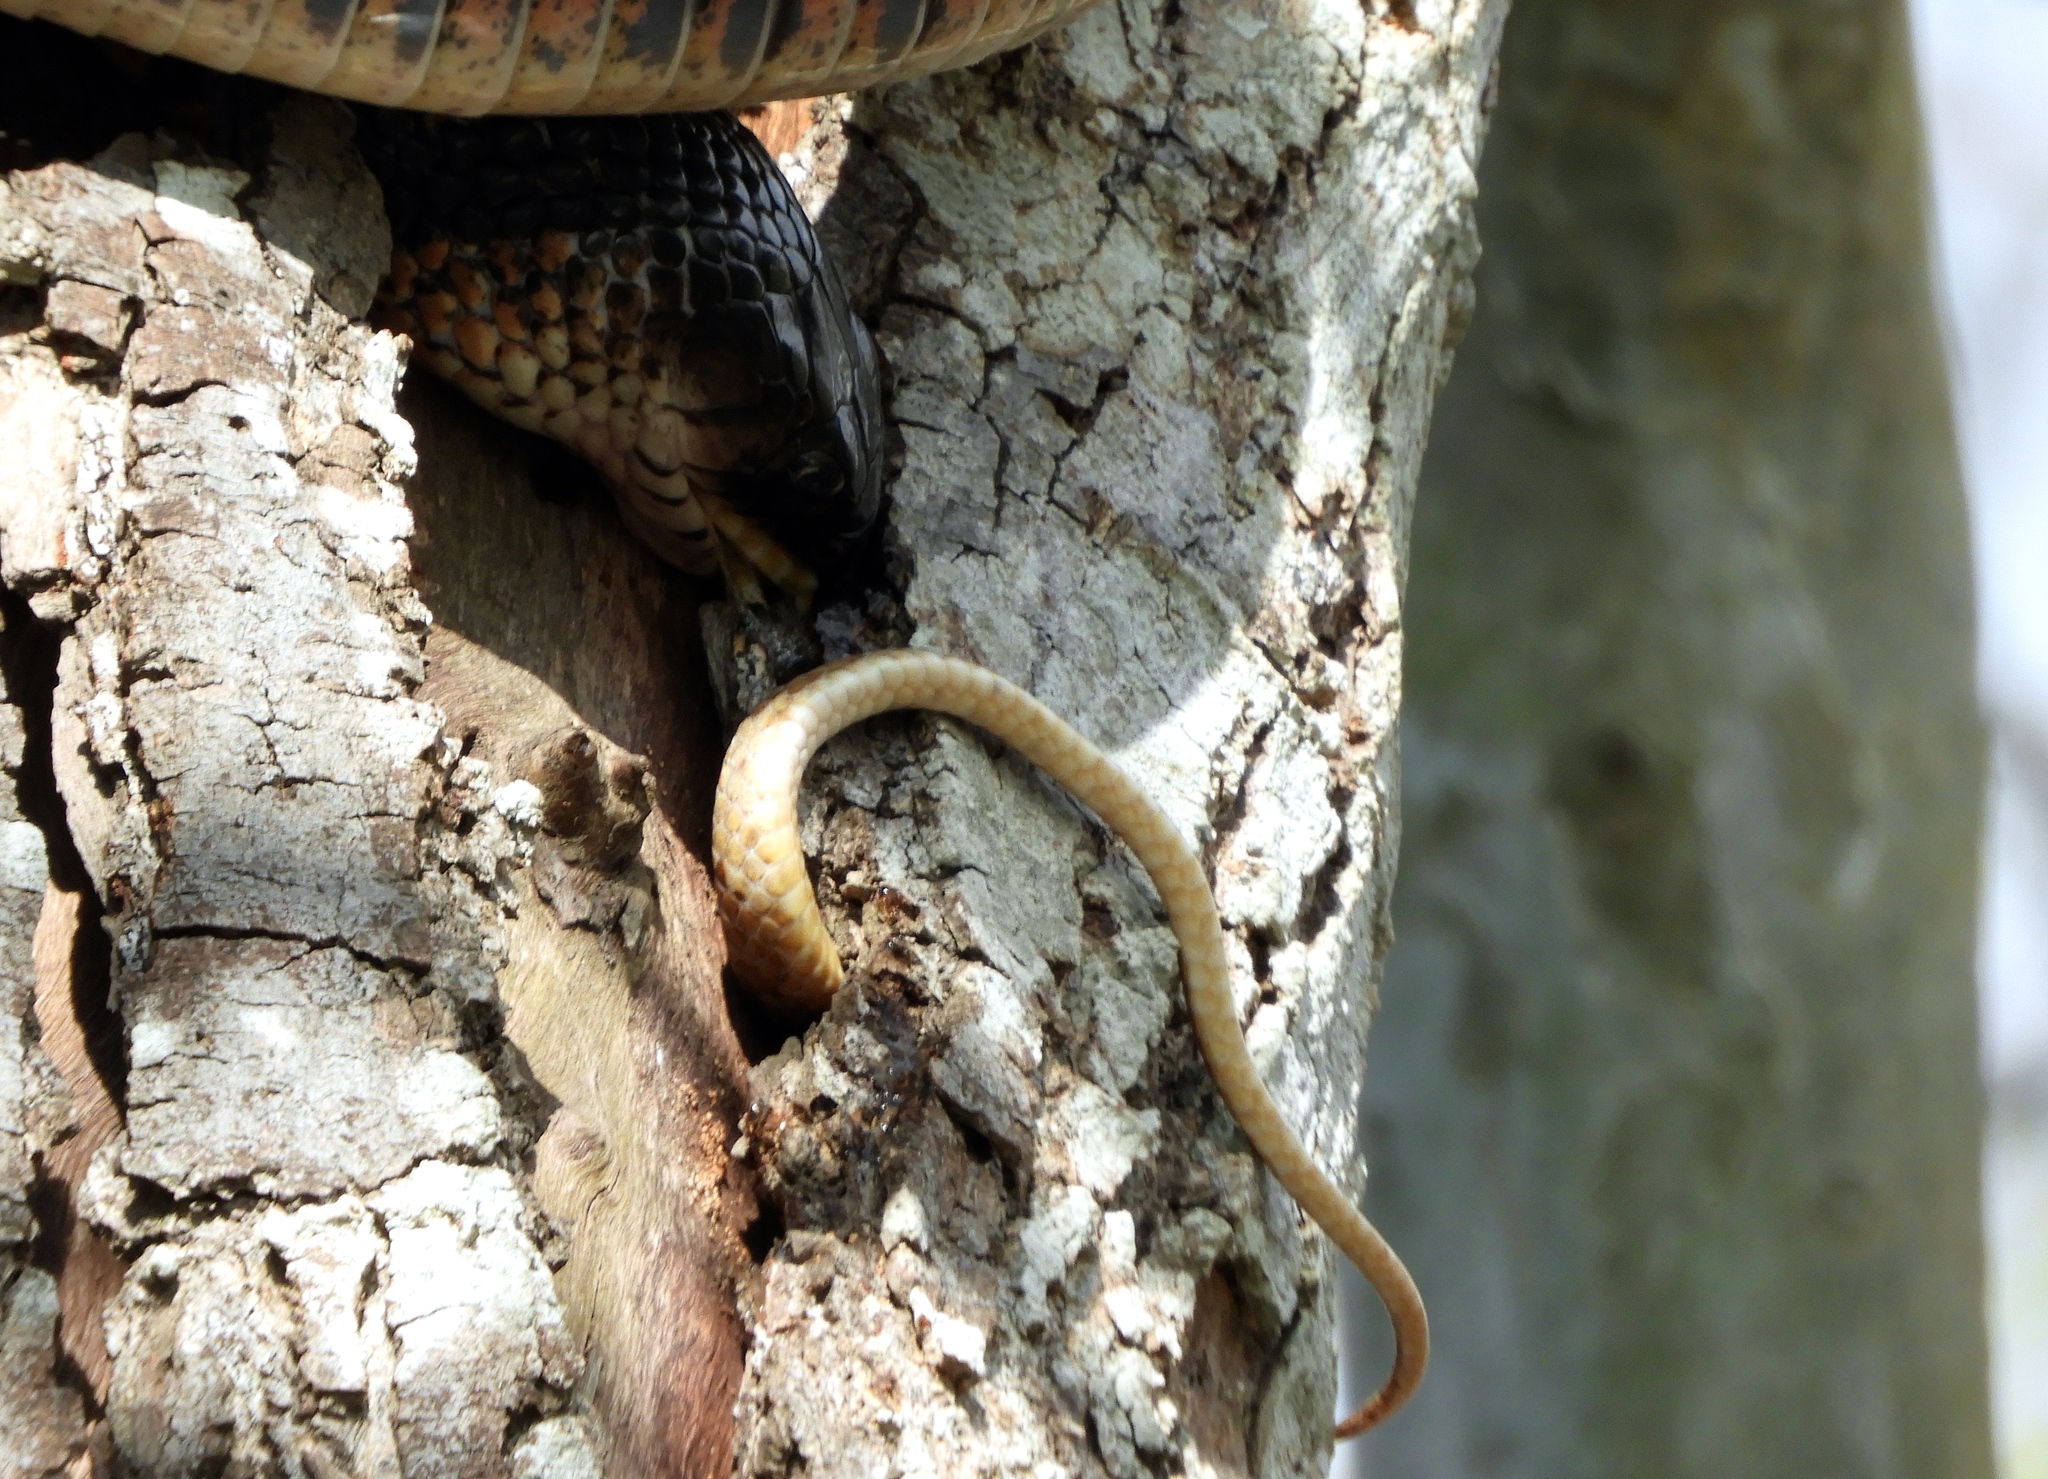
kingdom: Animalia
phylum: Chordata
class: Squamata
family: Colubridae
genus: Trimorphodon
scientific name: Trimorphodon paucimaculatus
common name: Sinaloan lyresnake
